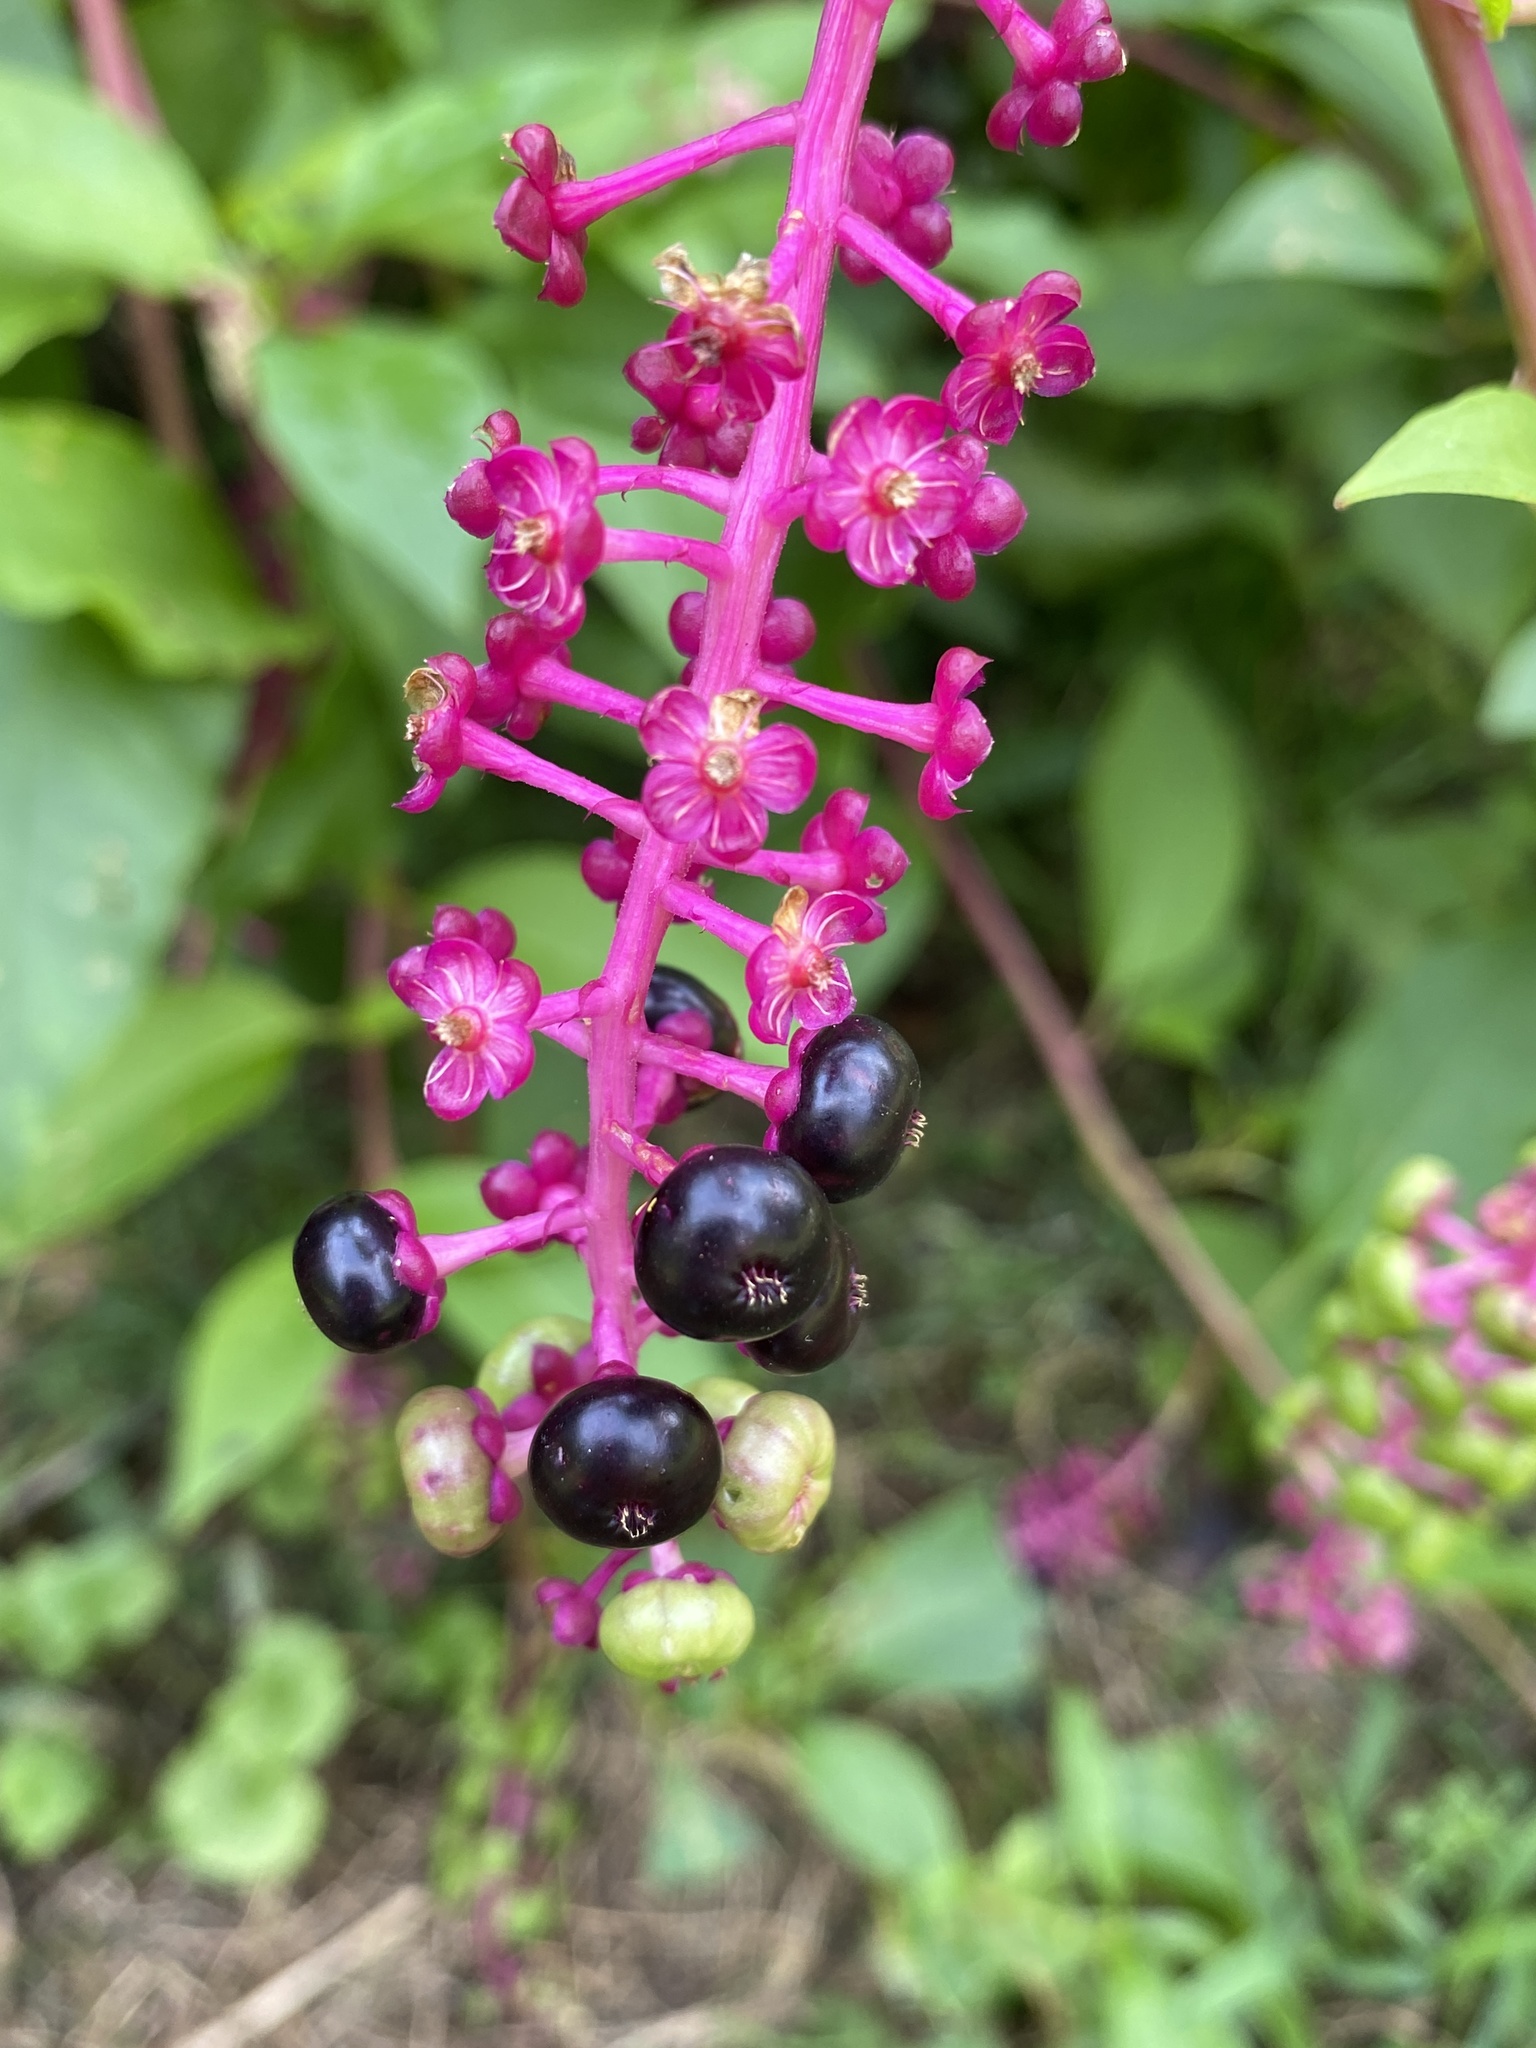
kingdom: Plantae
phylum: Tracheophyta
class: Magnoliopsida
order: Caryophyllales
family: Phytolaccaceae
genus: Phytolacca
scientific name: Phytolacca americana
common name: American pokeweed
